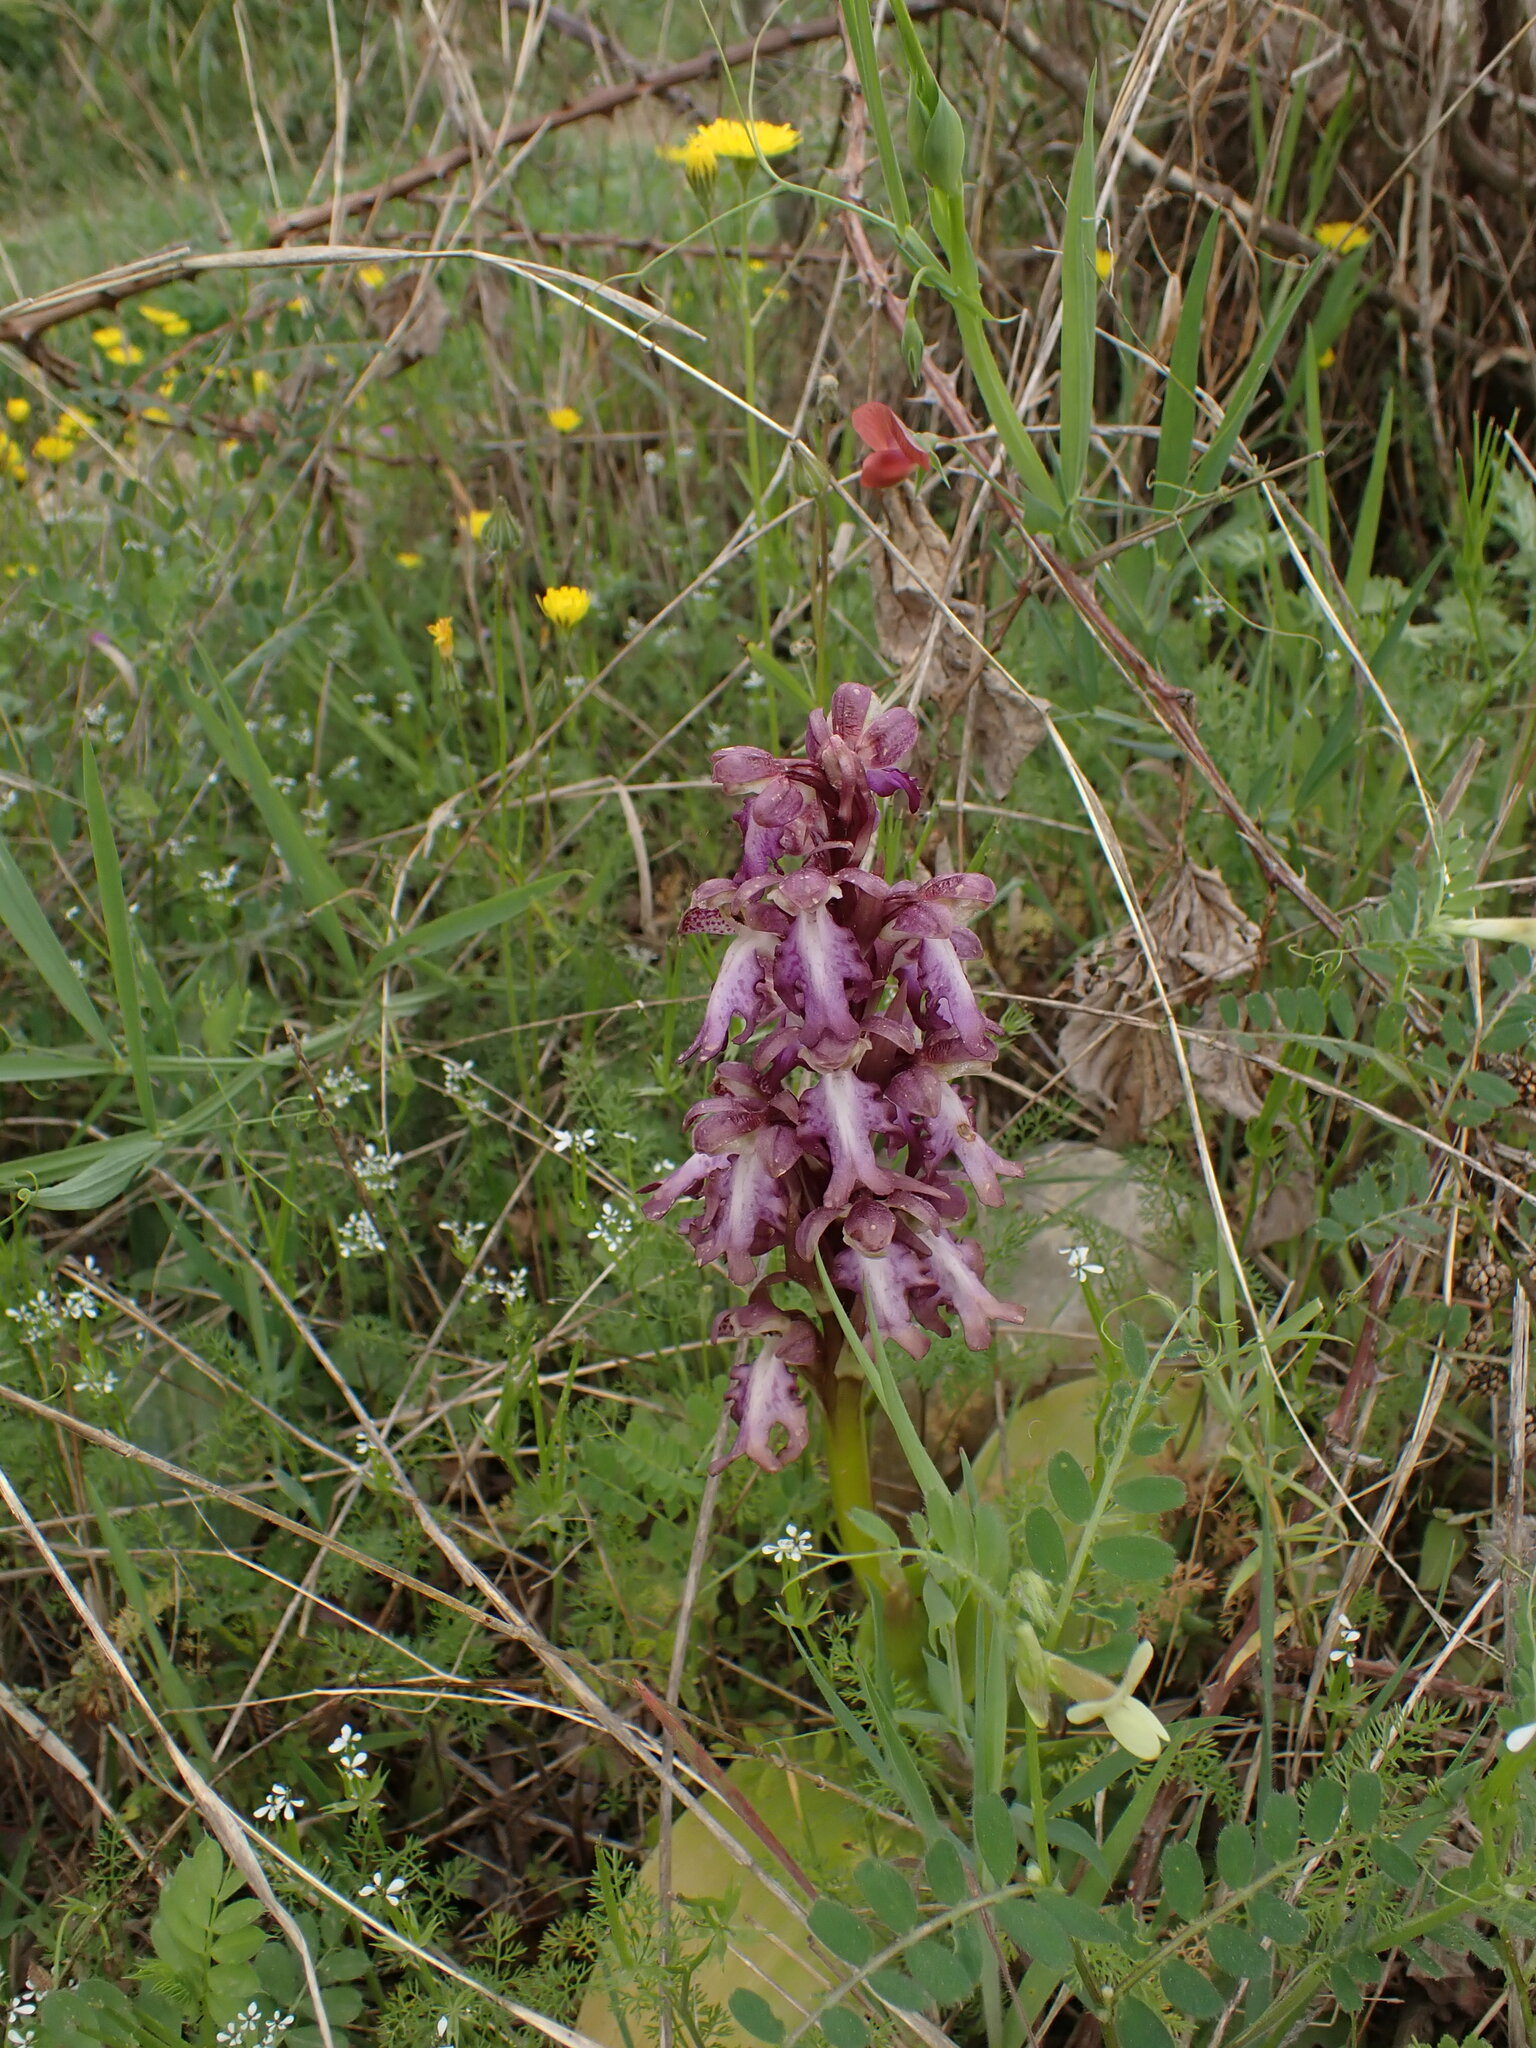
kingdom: Plantae
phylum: Tracheophyta
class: Liliopsida
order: Asparagales
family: Orchidaceae
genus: Himantoglossum
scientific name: Himantoglossum robertianum
